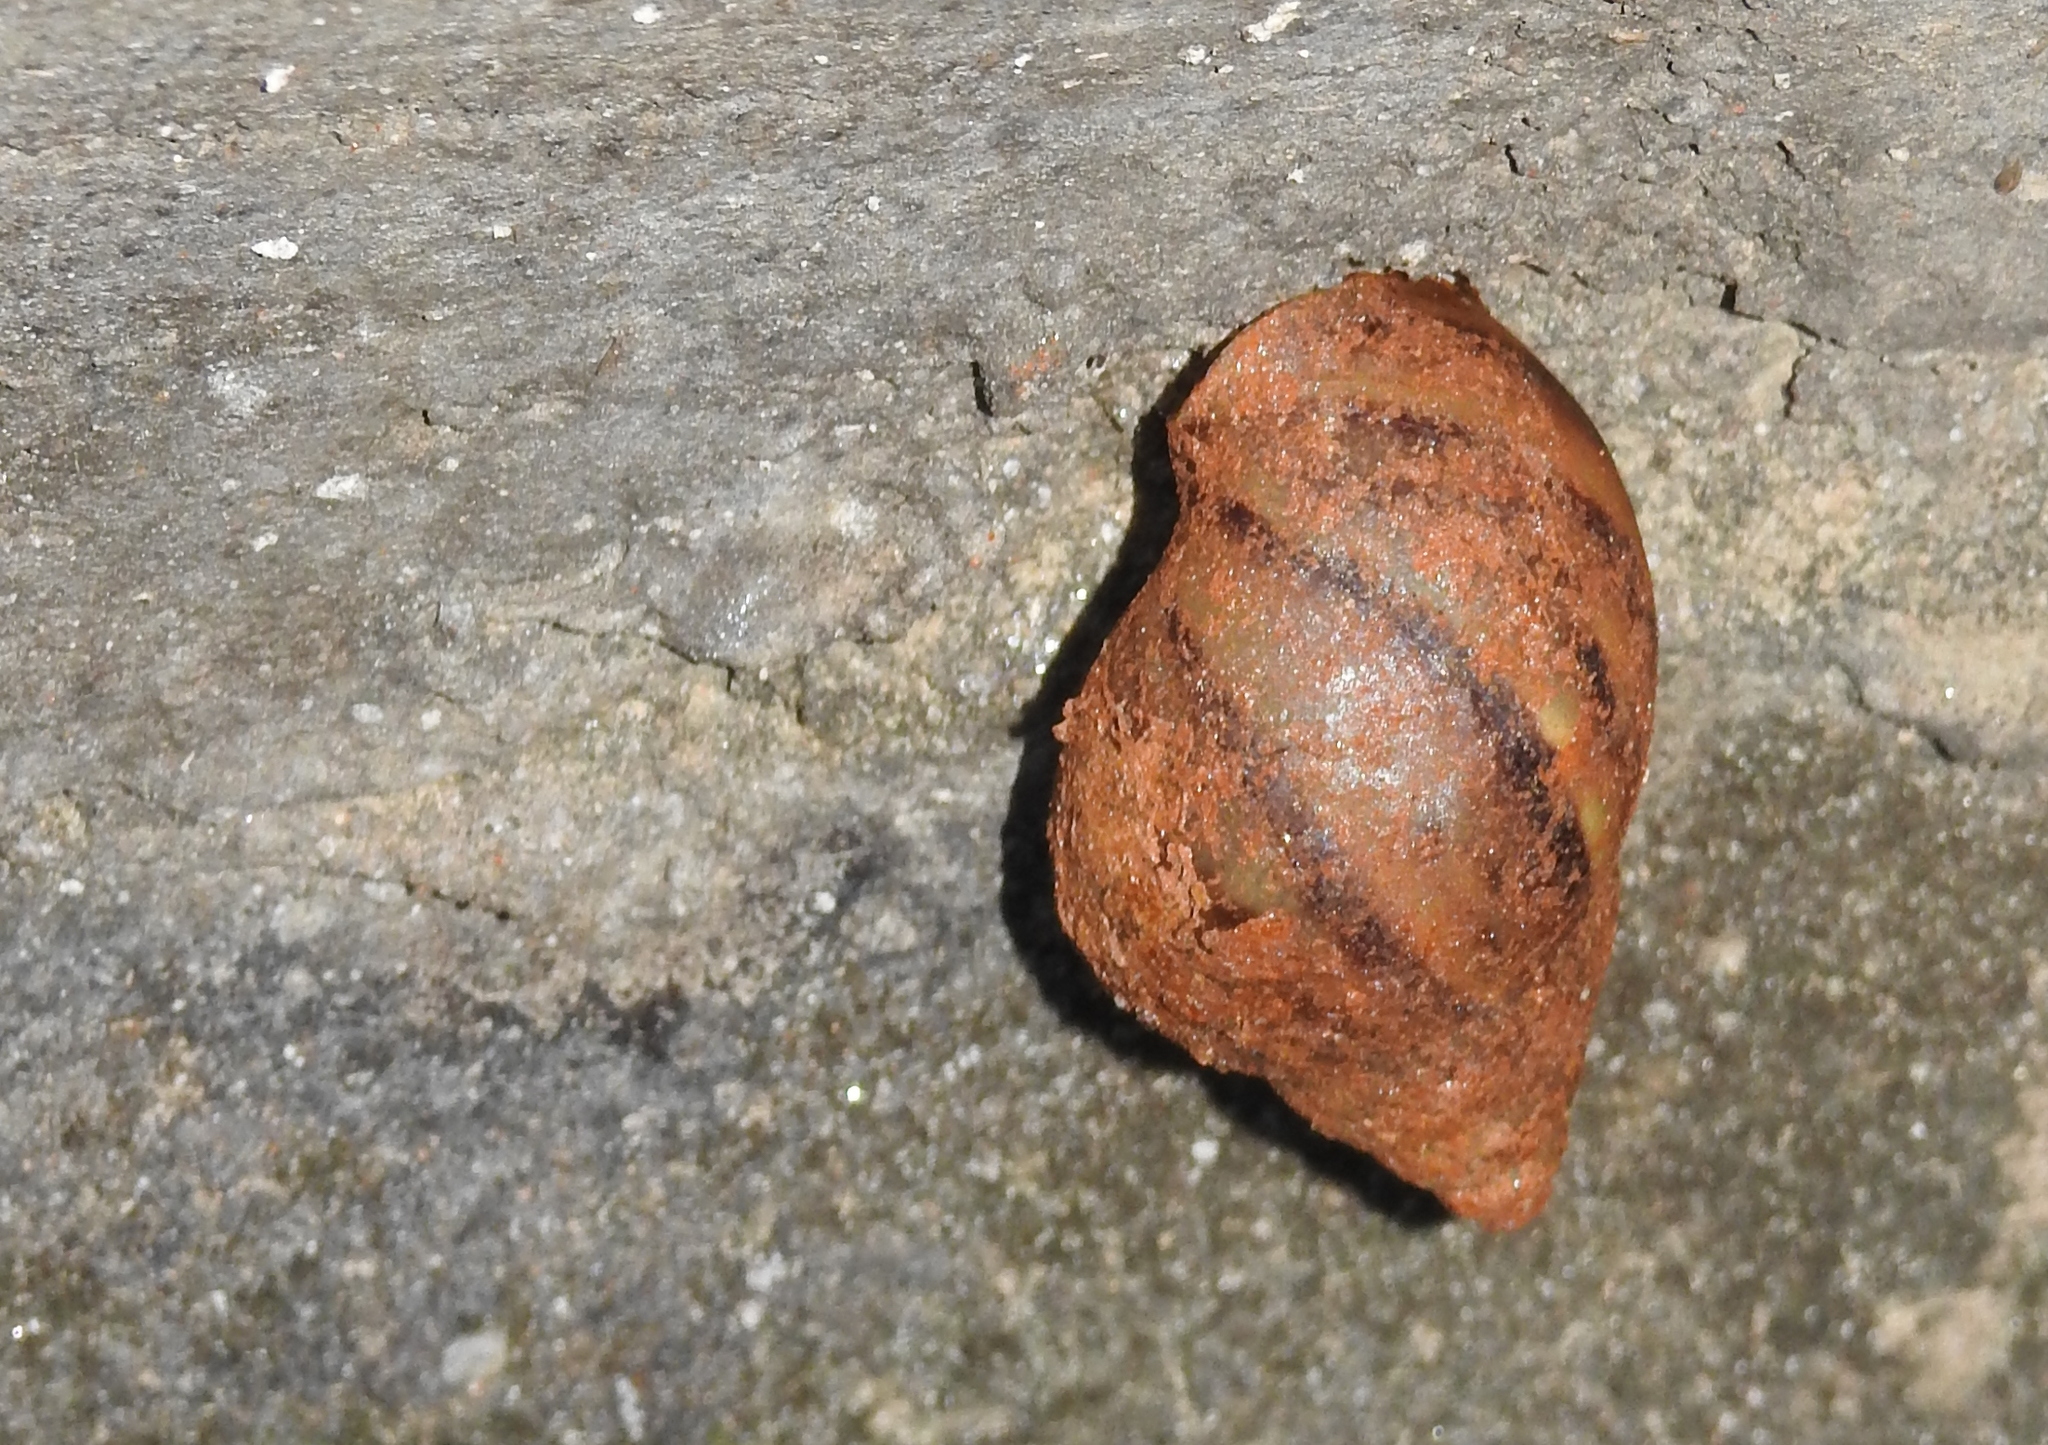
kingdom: Animalia
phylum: Mollusca
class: Gastropoda
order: Stylommatophora
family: Achatinidae
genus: Lissachatina
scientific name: Lissachatina fulica
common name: Giant african snail
